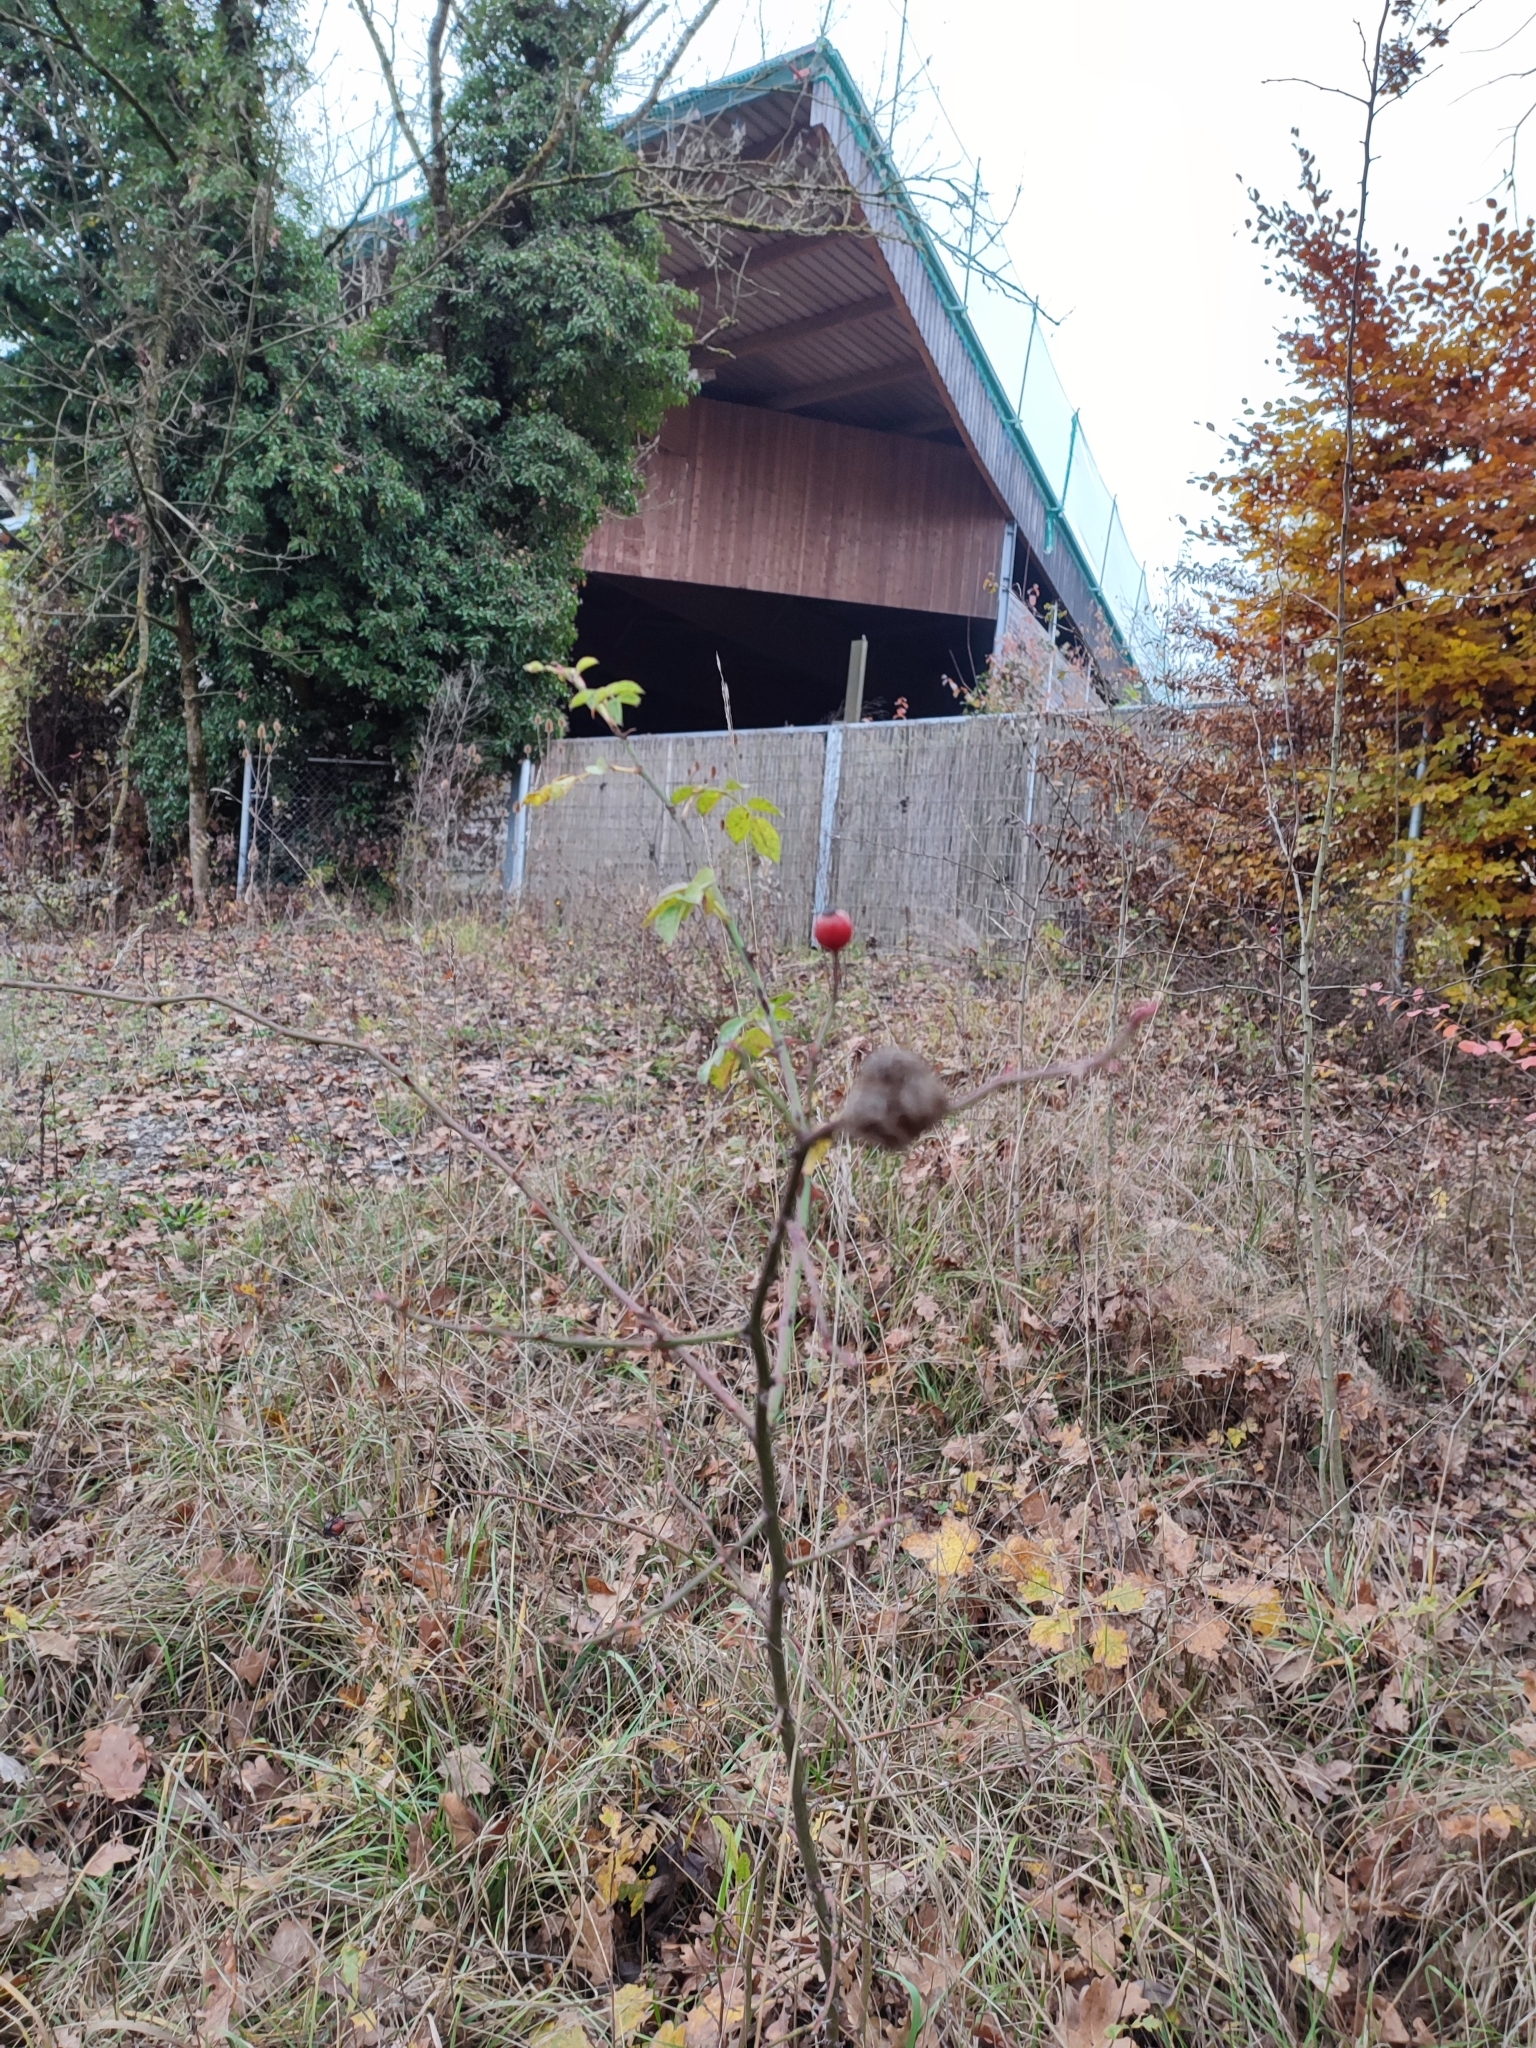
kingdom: Animalia
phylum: Arthropoda
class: Insecta
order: Hymenoptera
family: Cynipidae
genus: Diplolepis
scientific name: Diplolepis rosae
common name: Bedeguar gall
